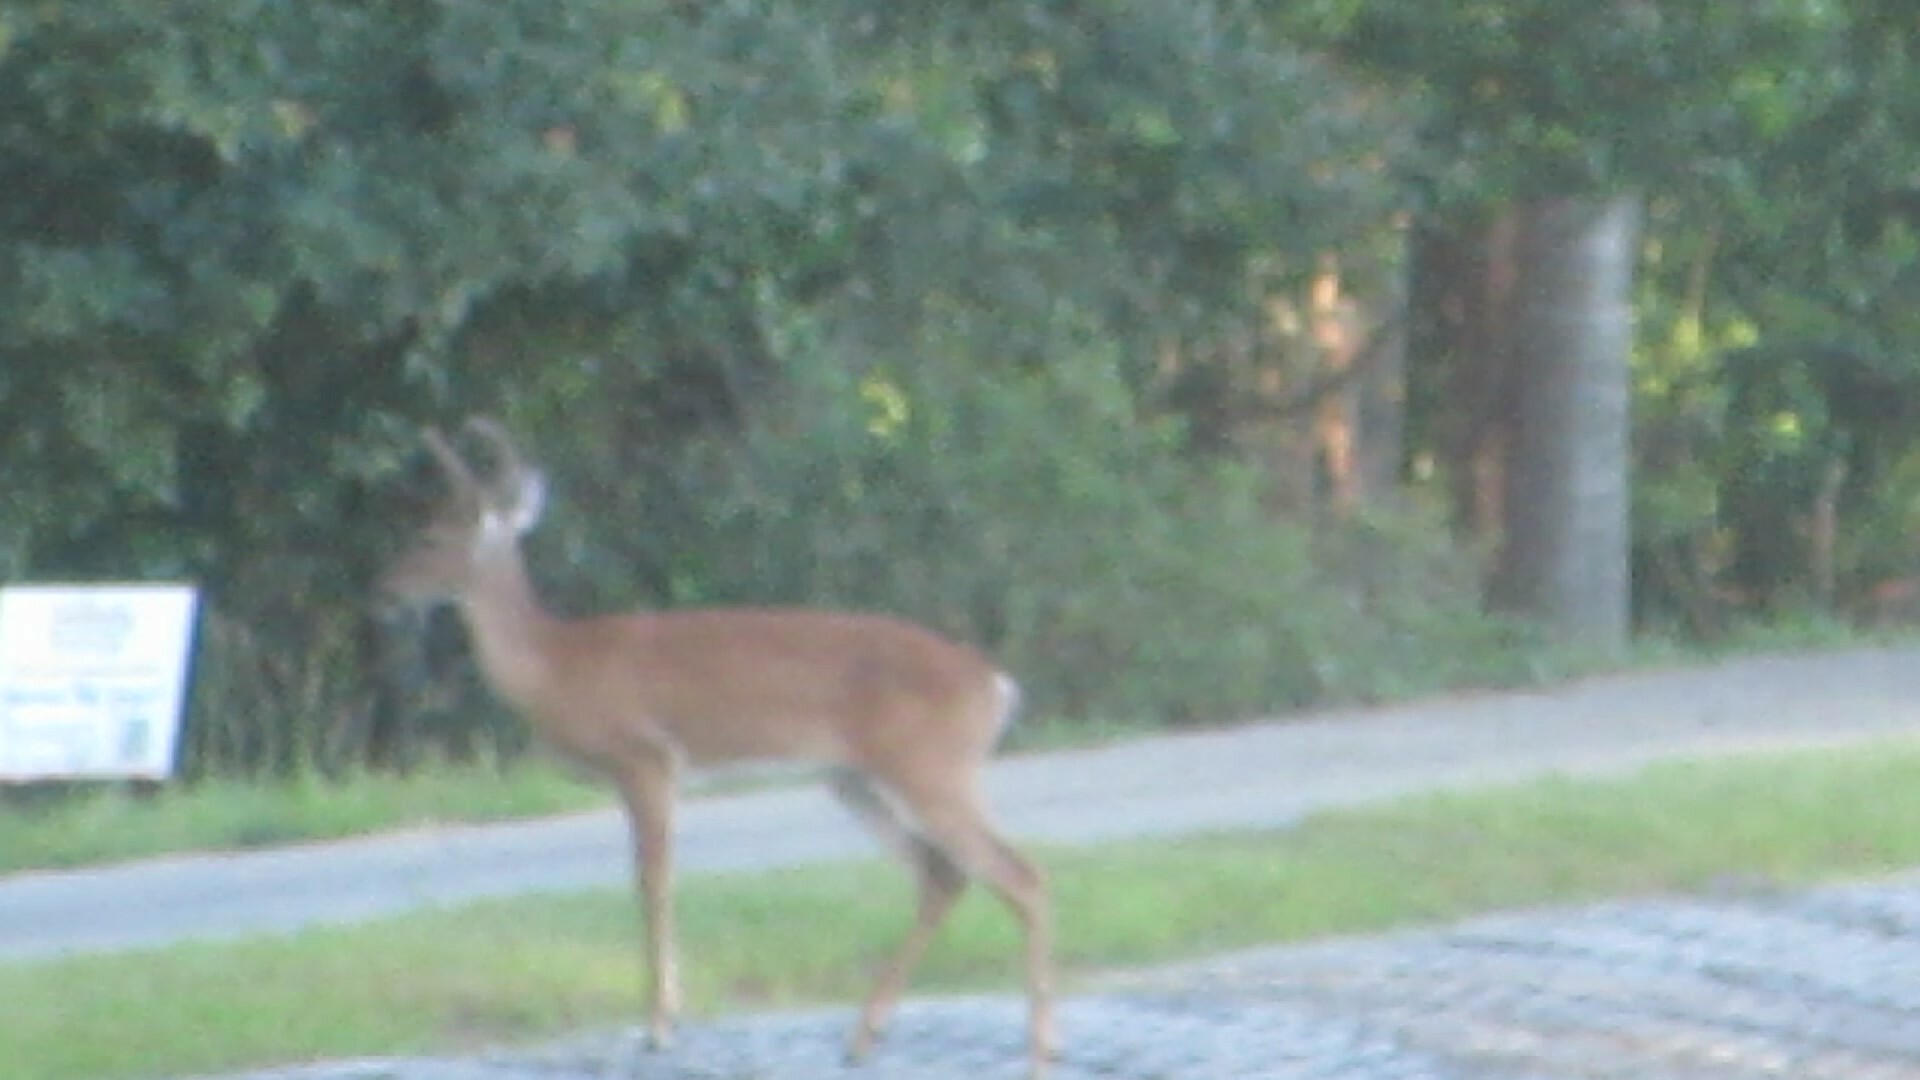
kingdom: Animalia
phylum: Chordata
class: Mammalia
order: Artiodactyla
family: Cervidae
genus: Odocoileus
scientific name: Odocoileus virginianus
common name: White-tailed deer
